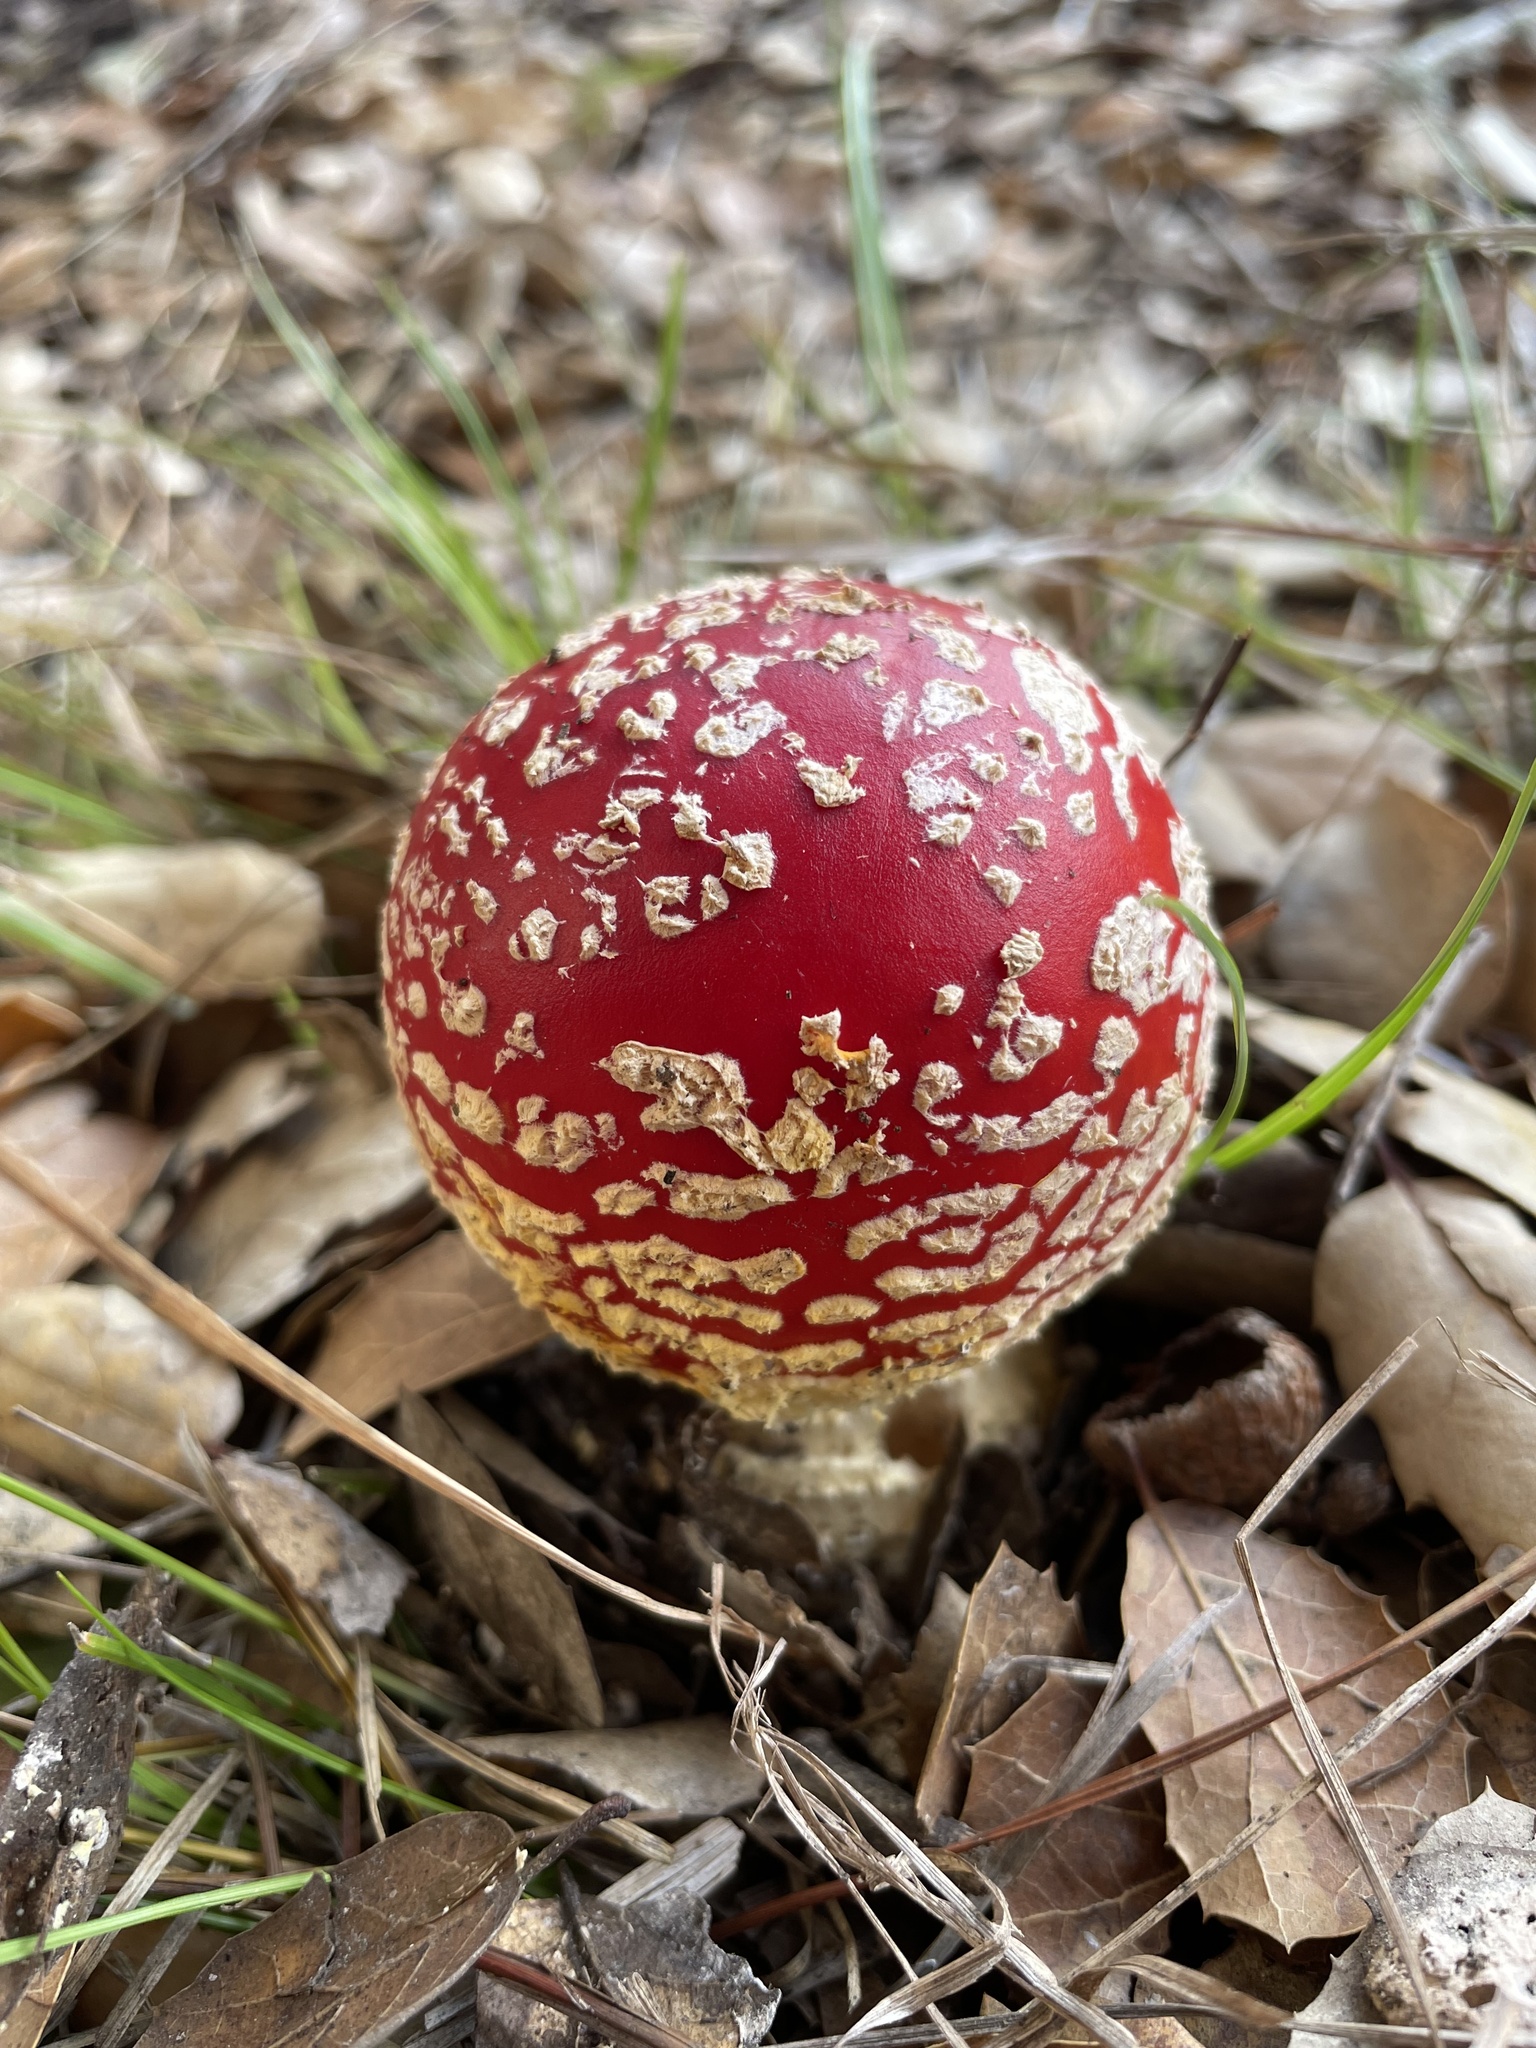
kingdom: Fungi
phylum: Basidiomycota
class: Agaricomycetes
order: Agaricales
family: Amanitaceae
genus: Amanita
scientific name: Amanita muscaria
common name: Fly agaric
